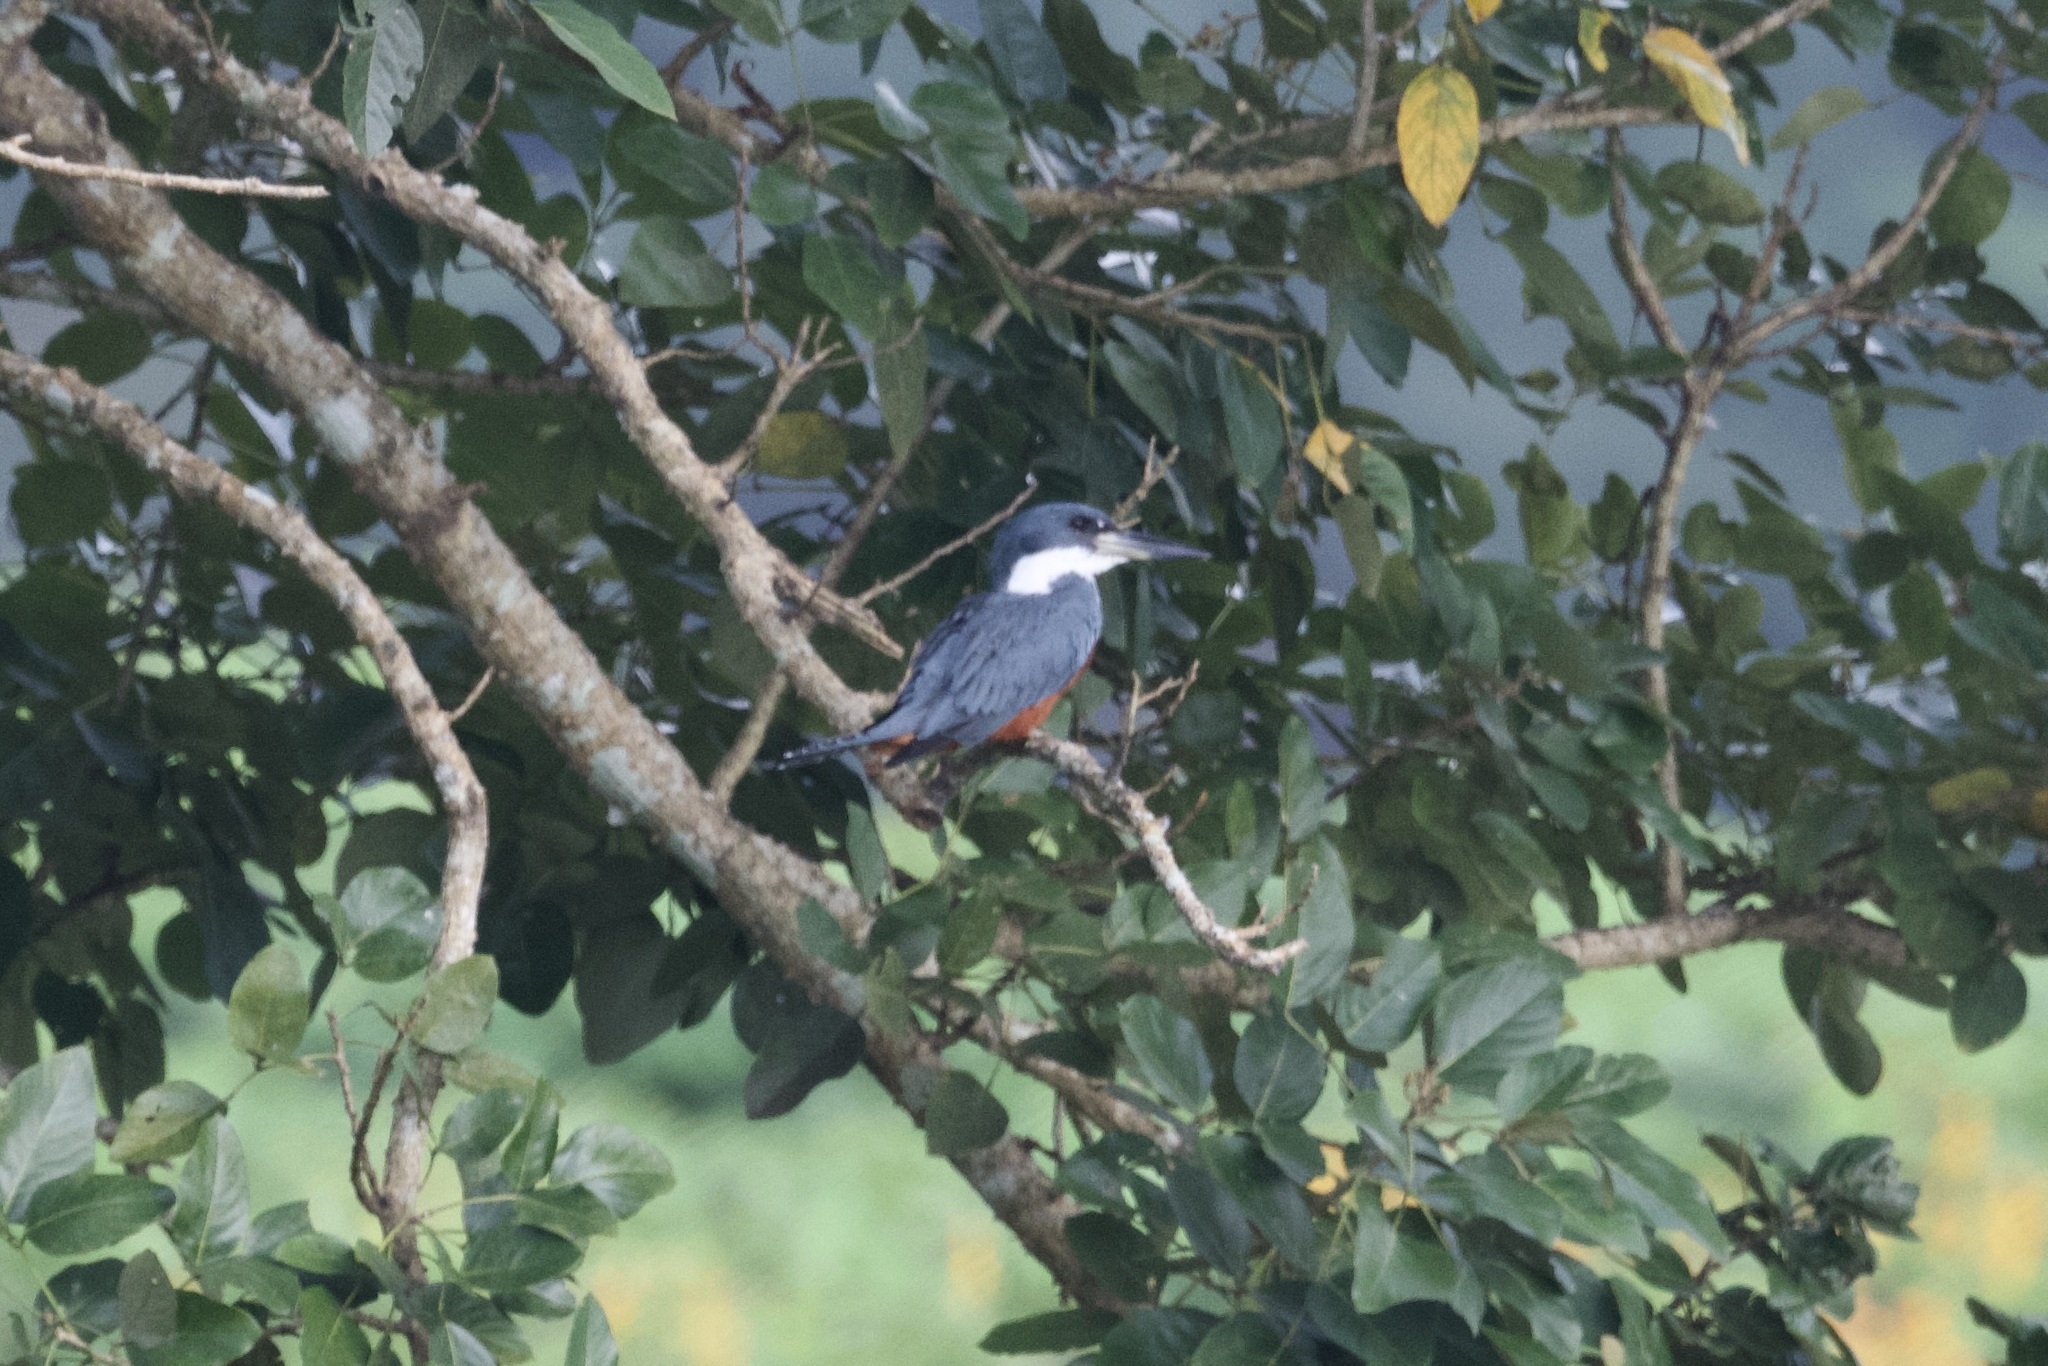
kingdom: Animalia
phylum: Chordata
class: Aves
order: Coraciiformes
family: Alcedinidae
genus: Megaceryle
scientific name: Megaceryle torquata
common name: Ringed kingfisher
